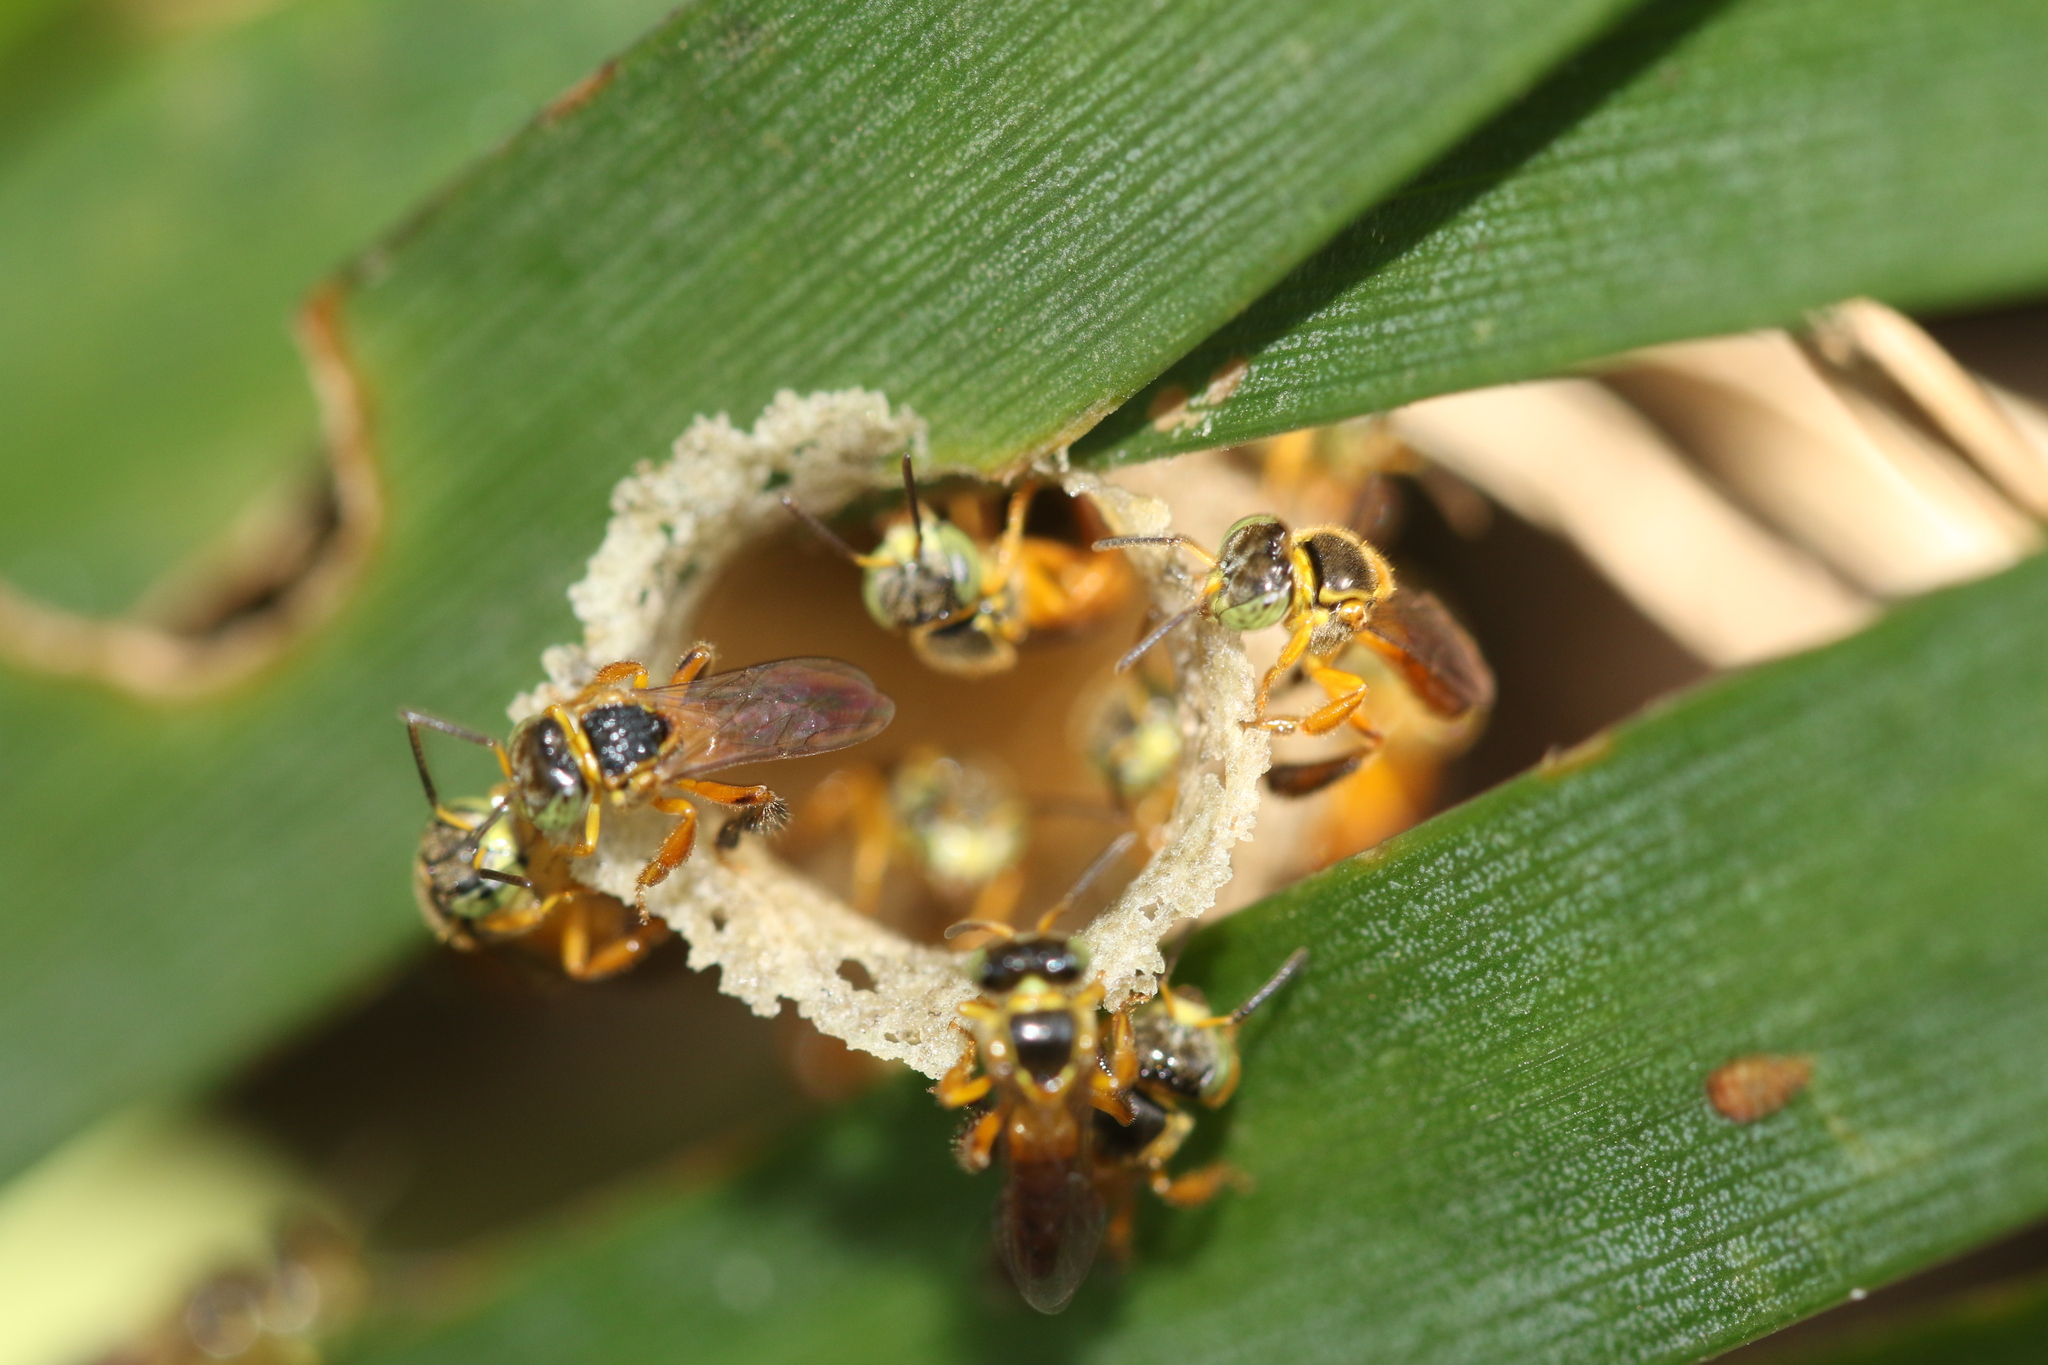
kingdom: Animalia
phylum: Arthropoda
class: Insecta
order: Hymenoptera
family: Apidae
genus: Tetragonisca
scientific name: Tetragonisca angustula
